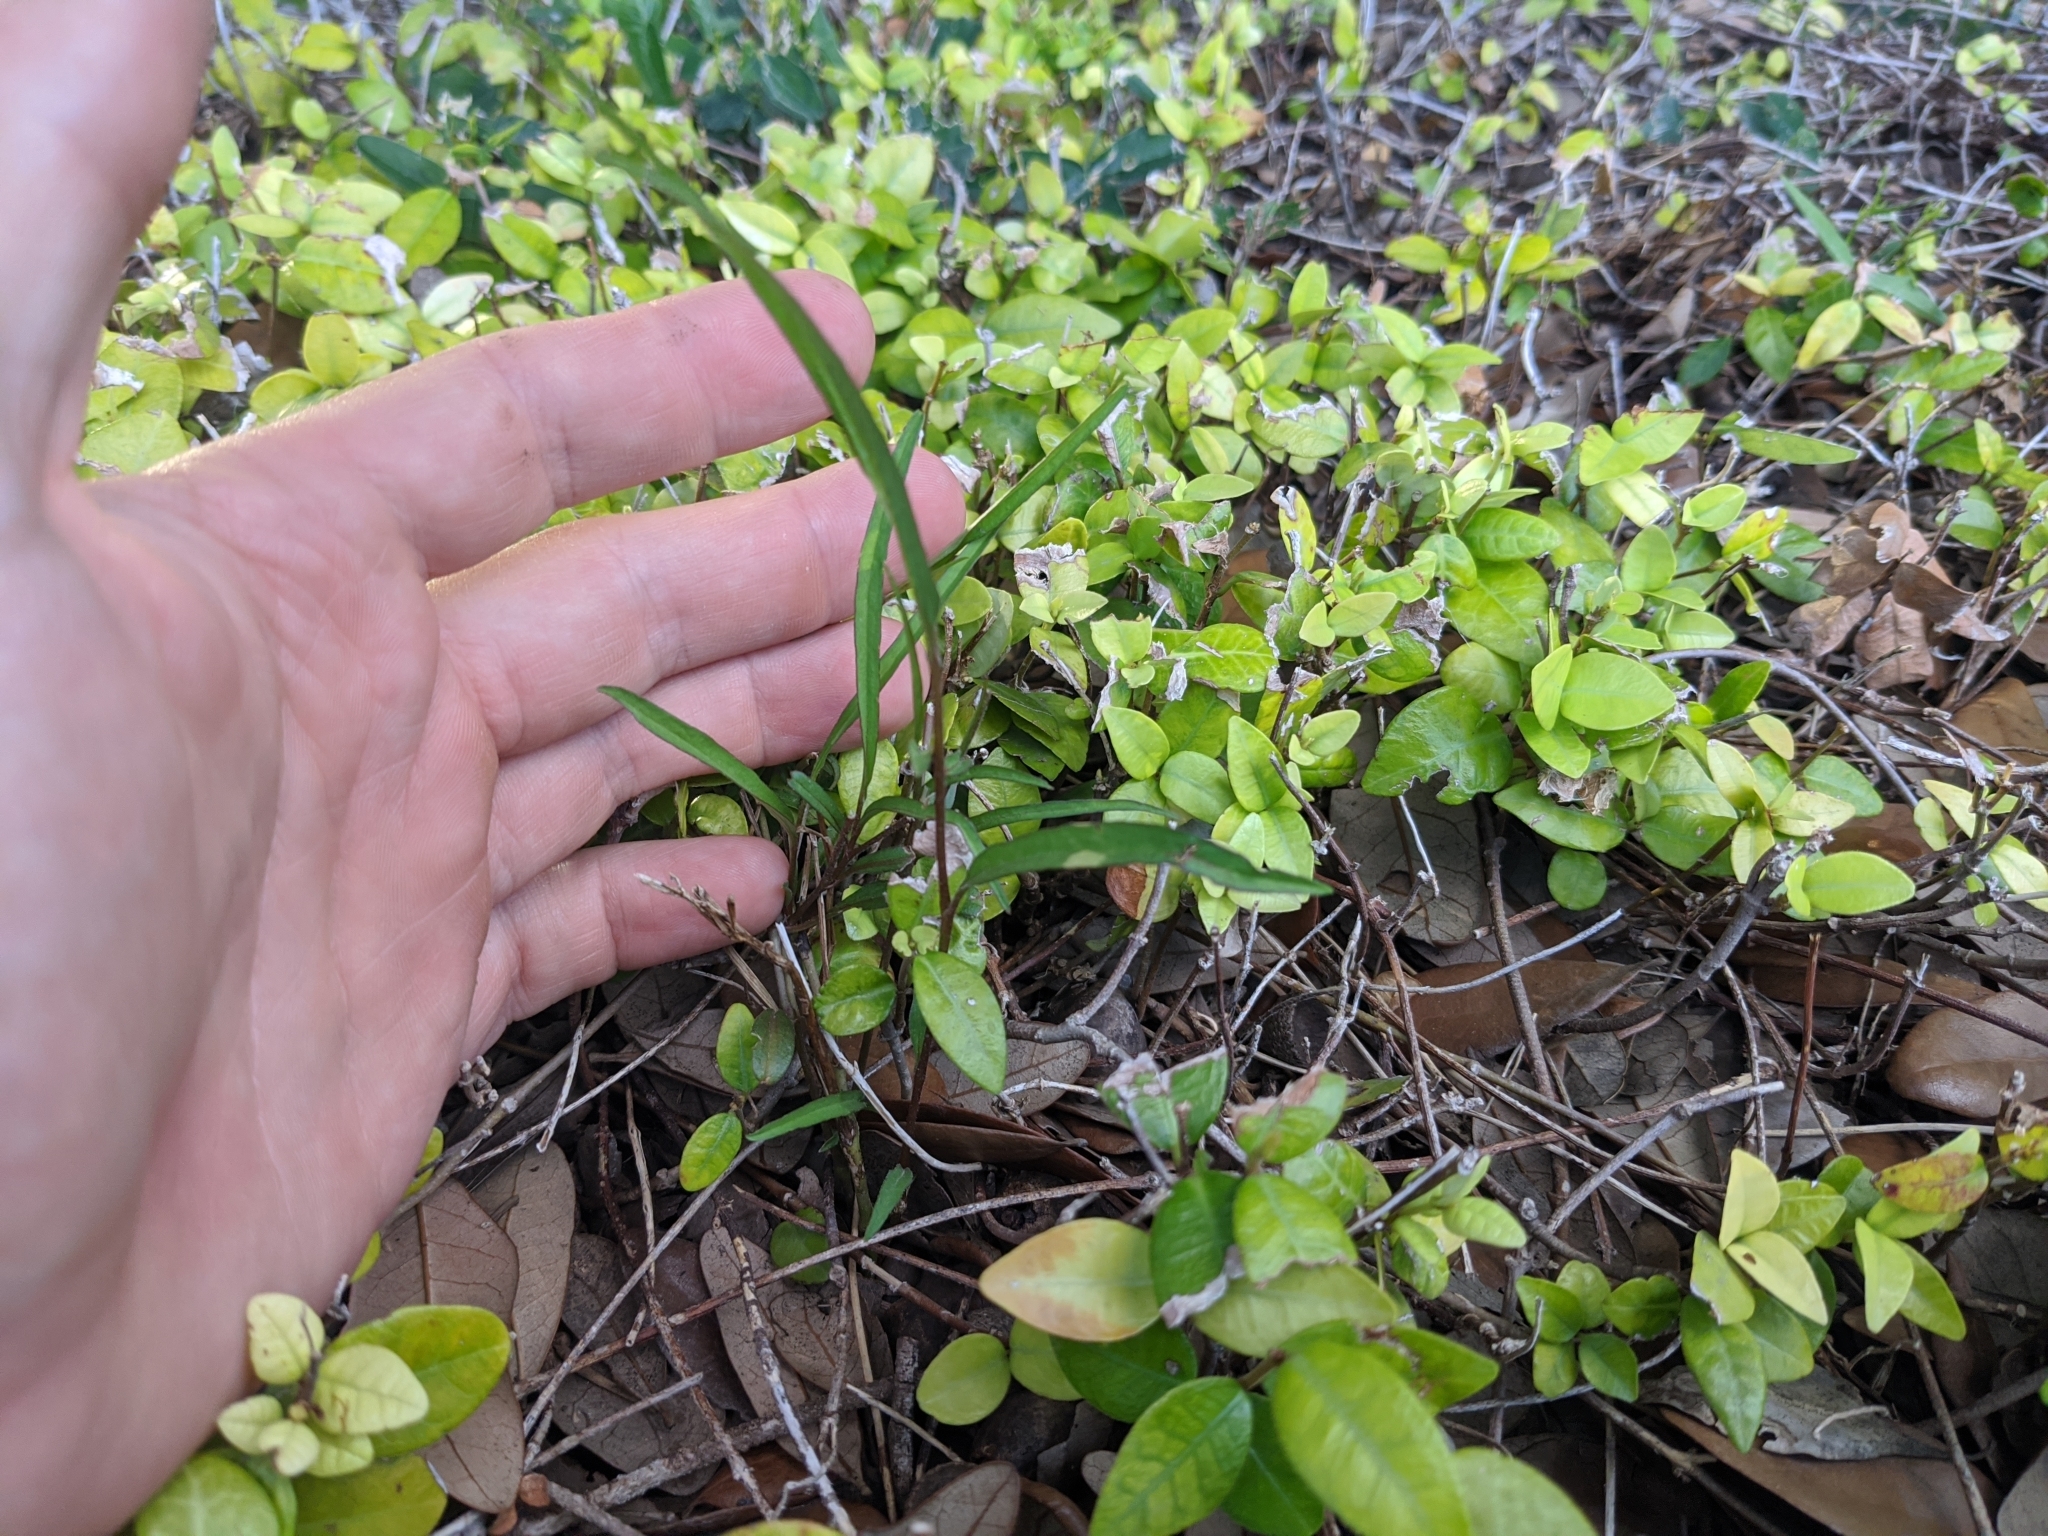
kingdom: Plantae
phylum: Tracheophyta
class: Magnoliopsida
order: Piperales
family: Aristolochiaceae
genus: Aristolochia
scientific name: Aristolochia erecta
